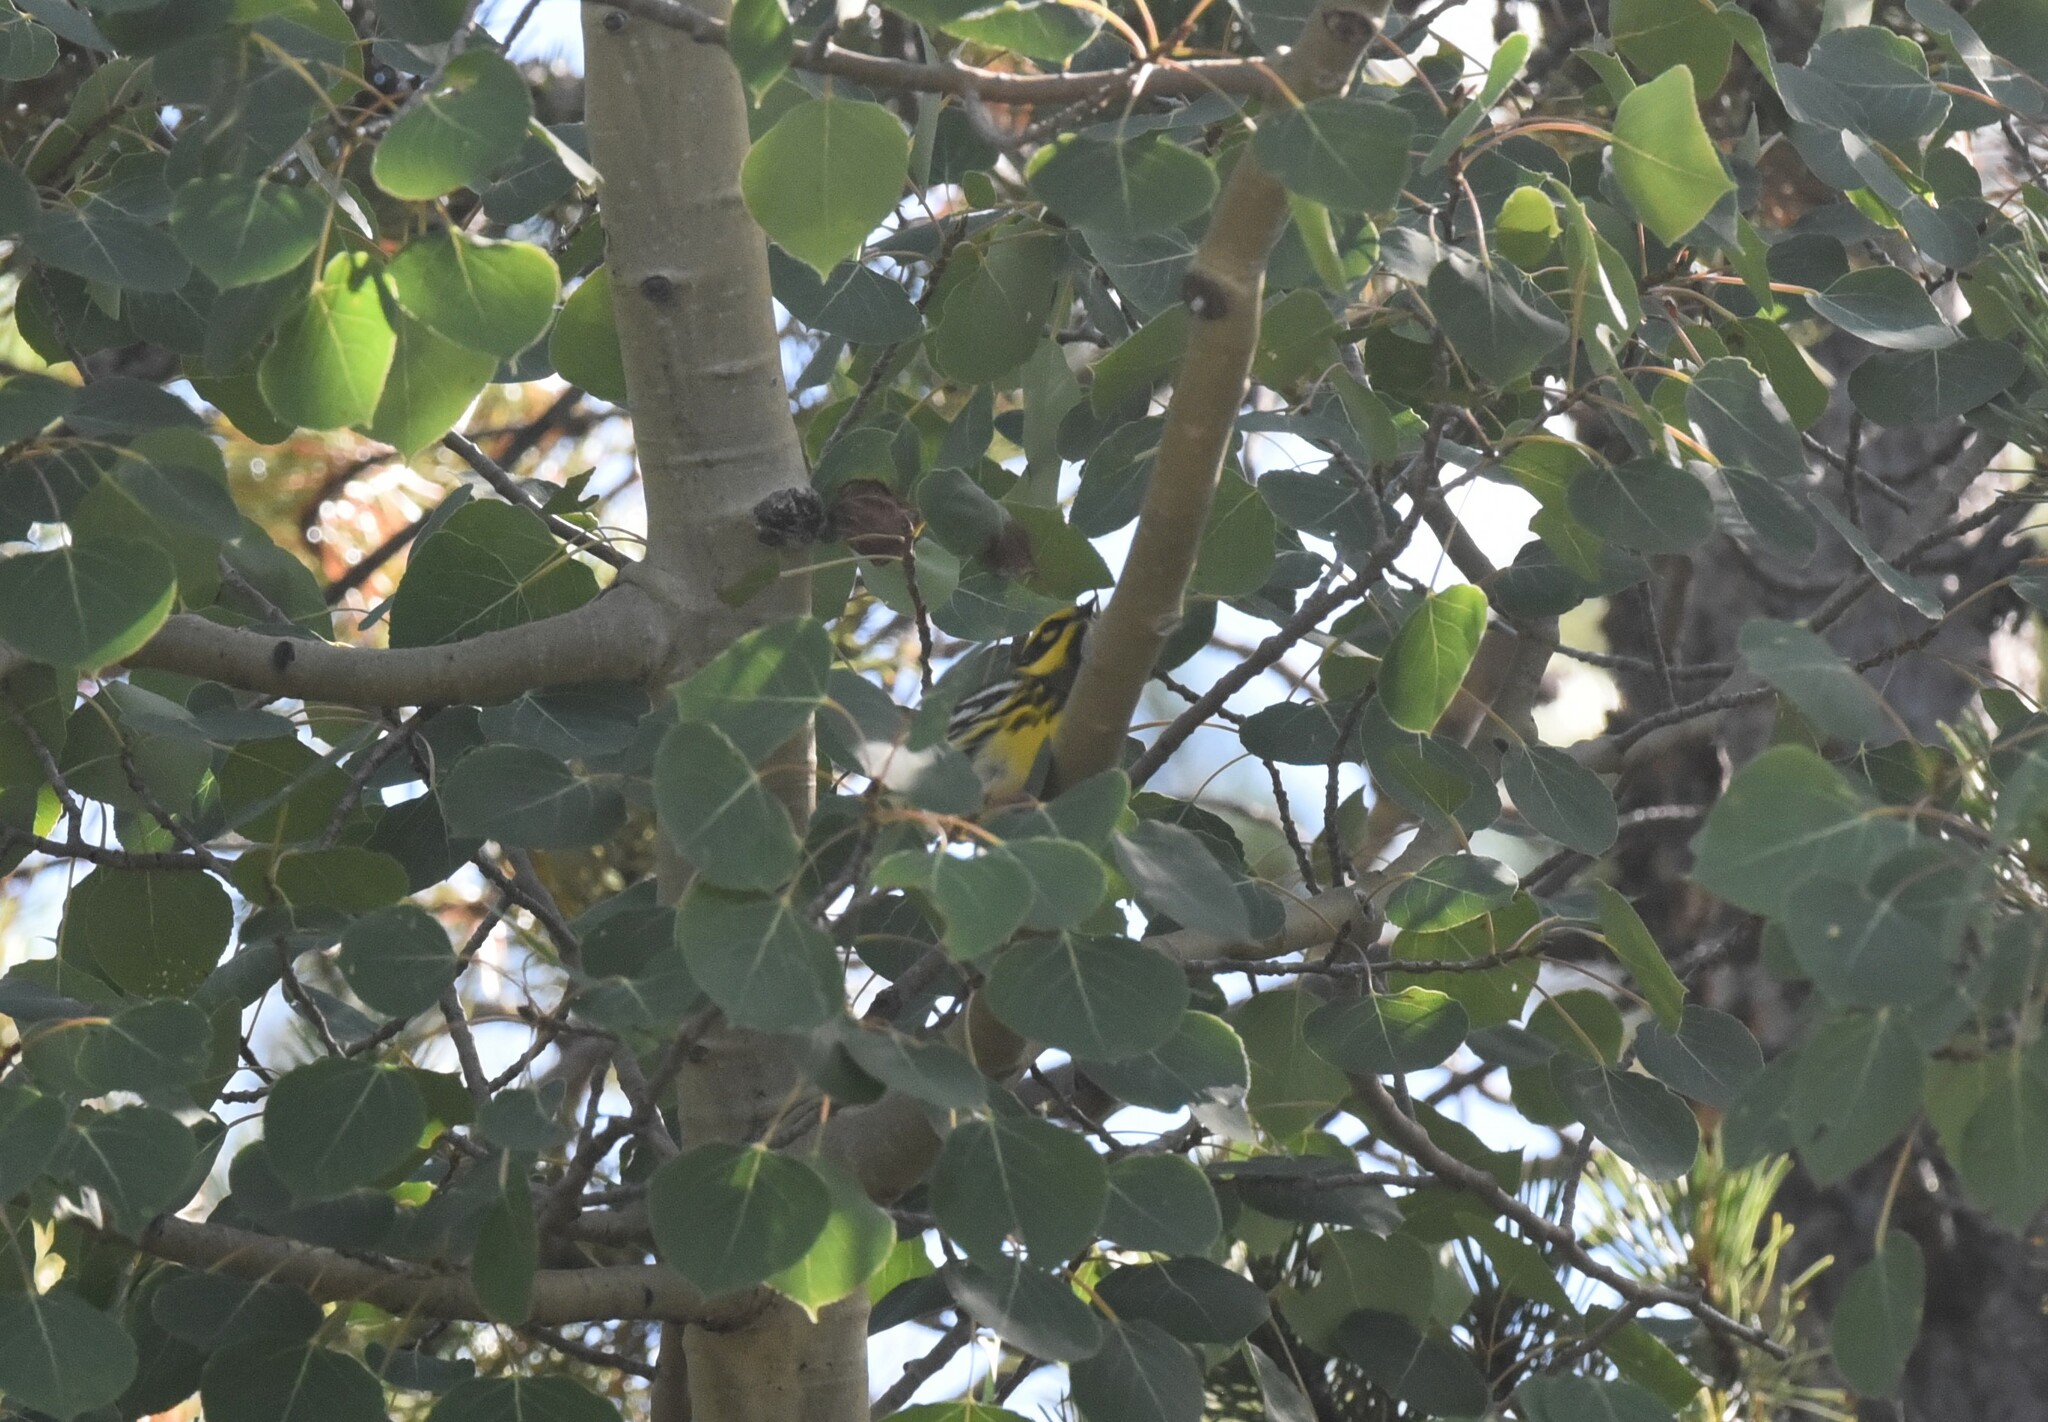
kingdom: Animalia
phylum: Chordata
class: Aves
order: Passeriformes
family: Parulidae
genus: Setophaga
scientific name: Setophaga townsendi
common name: Townsend's warbler
